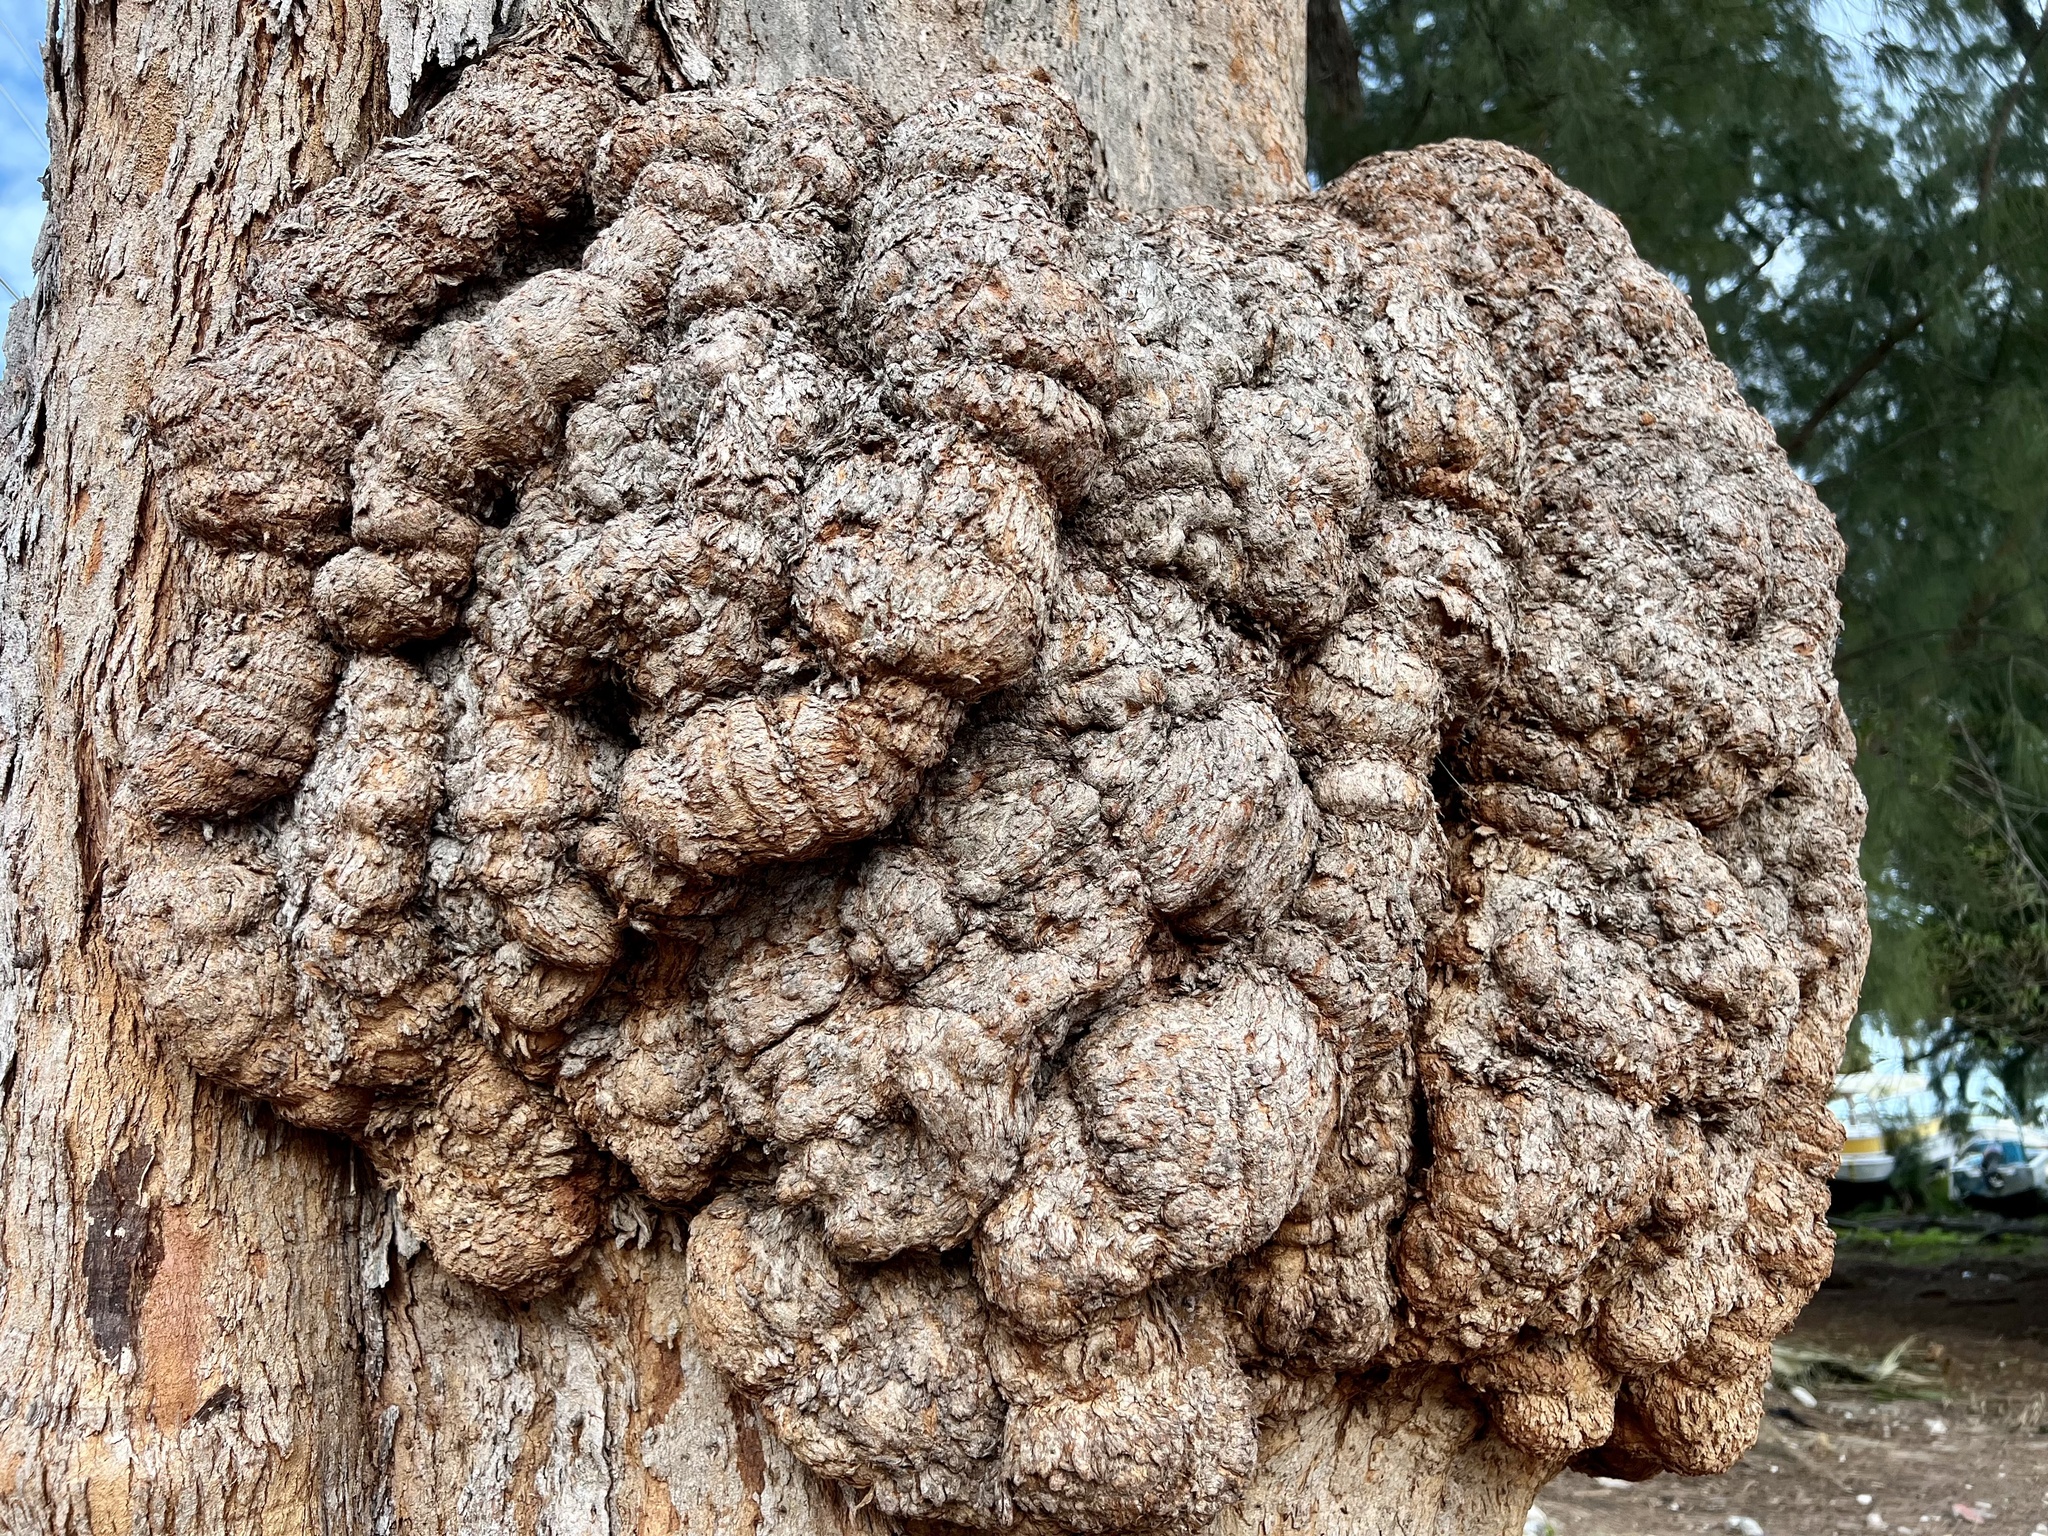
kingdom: Plantae
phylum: Tracheophyta
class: Magnoliopsida
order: Fagales
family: Casuarinaceae
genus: Casuarina
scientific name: Casuarina equisetifolia
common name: Beach sheoak
